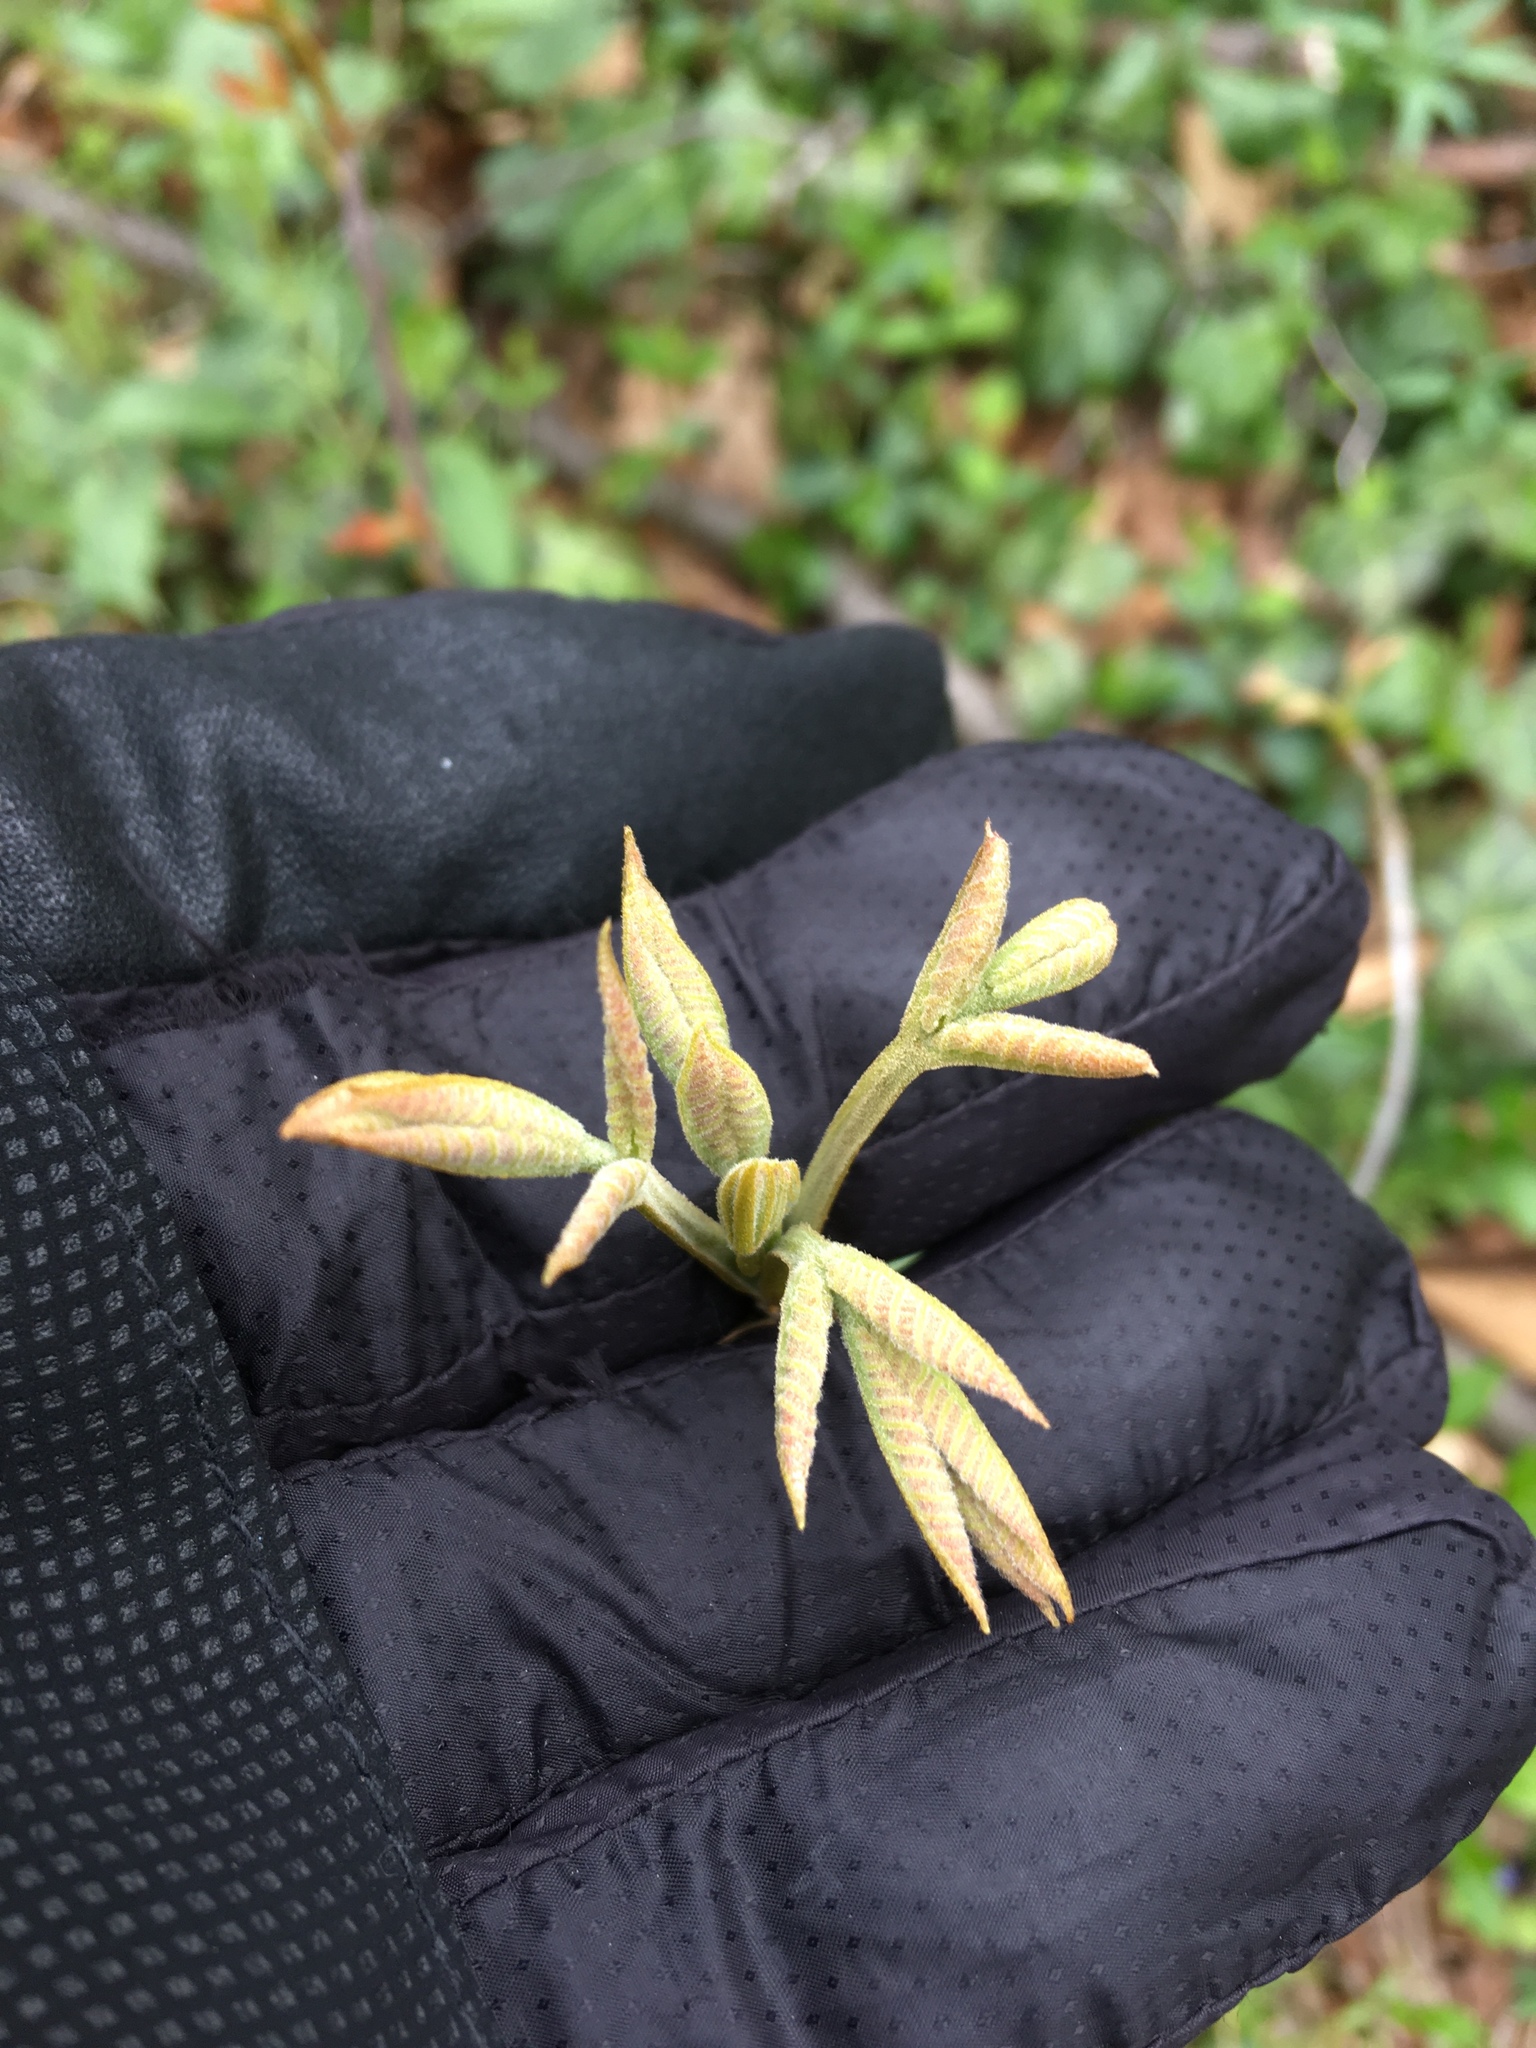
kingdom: Plantae
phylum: Tracheophyta
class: Magnoliopsida
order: Fagales
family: Juglandaceae
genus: Carya
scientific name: Carya cordiformis
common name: Bitternut hickory
